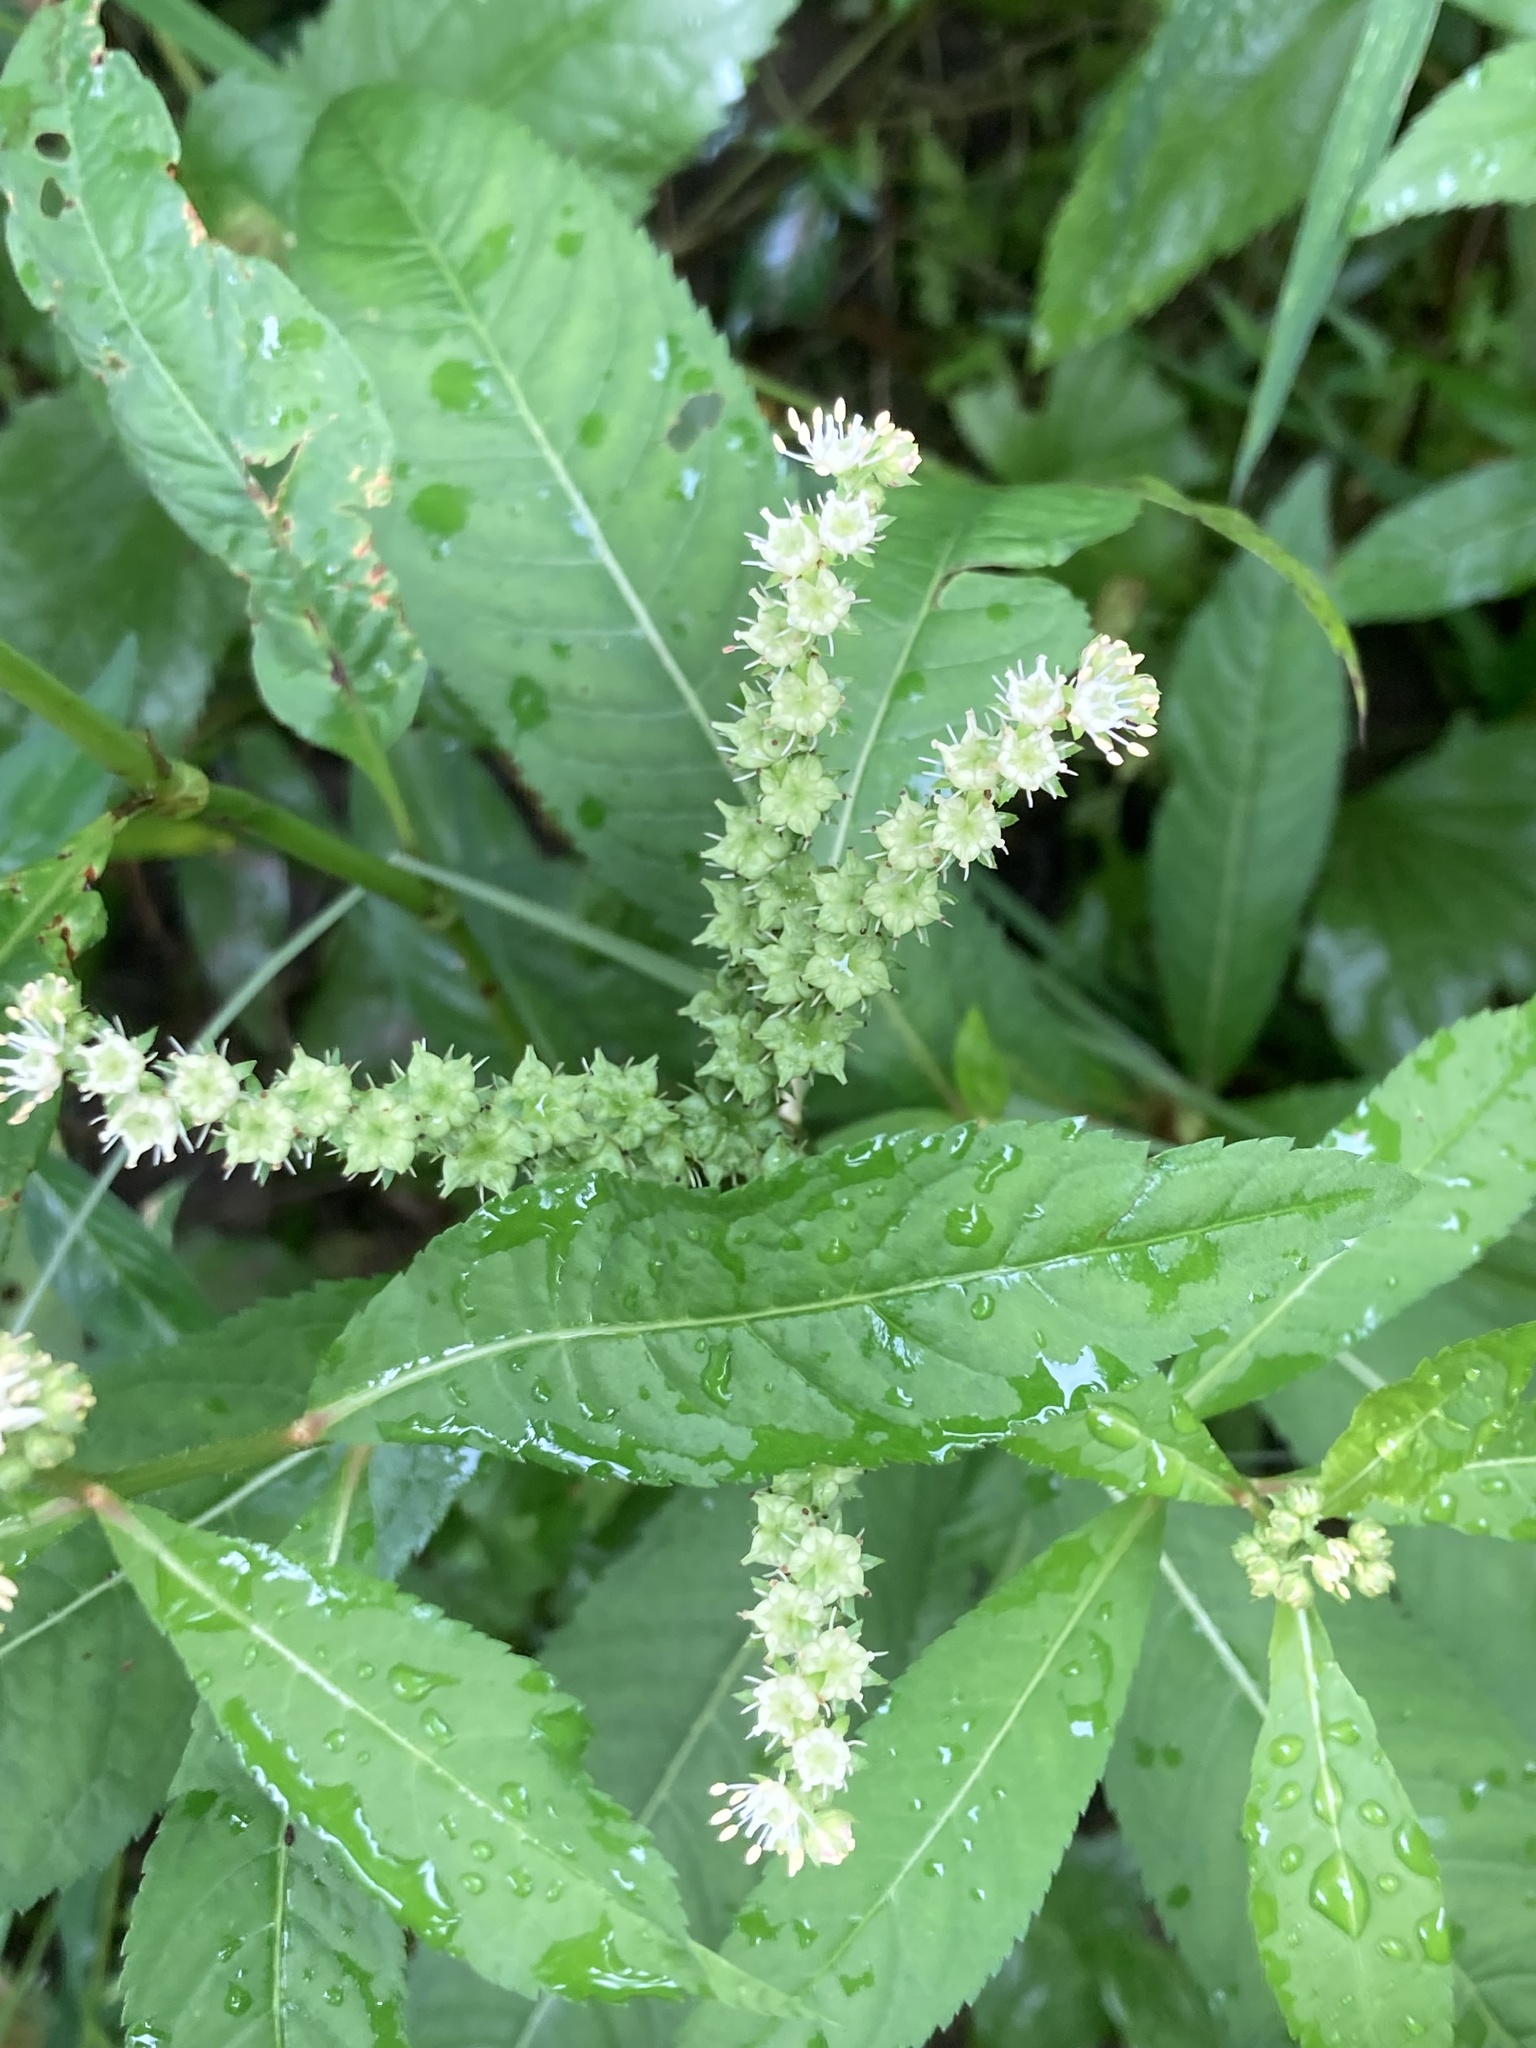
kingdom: Plantae
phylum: Tracheophyta
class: Magnoliopsida
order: Saxifragales
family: Penthoraceae
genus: Penthorum
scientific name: Penthorum sedoides
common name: Ditch stonecrop
